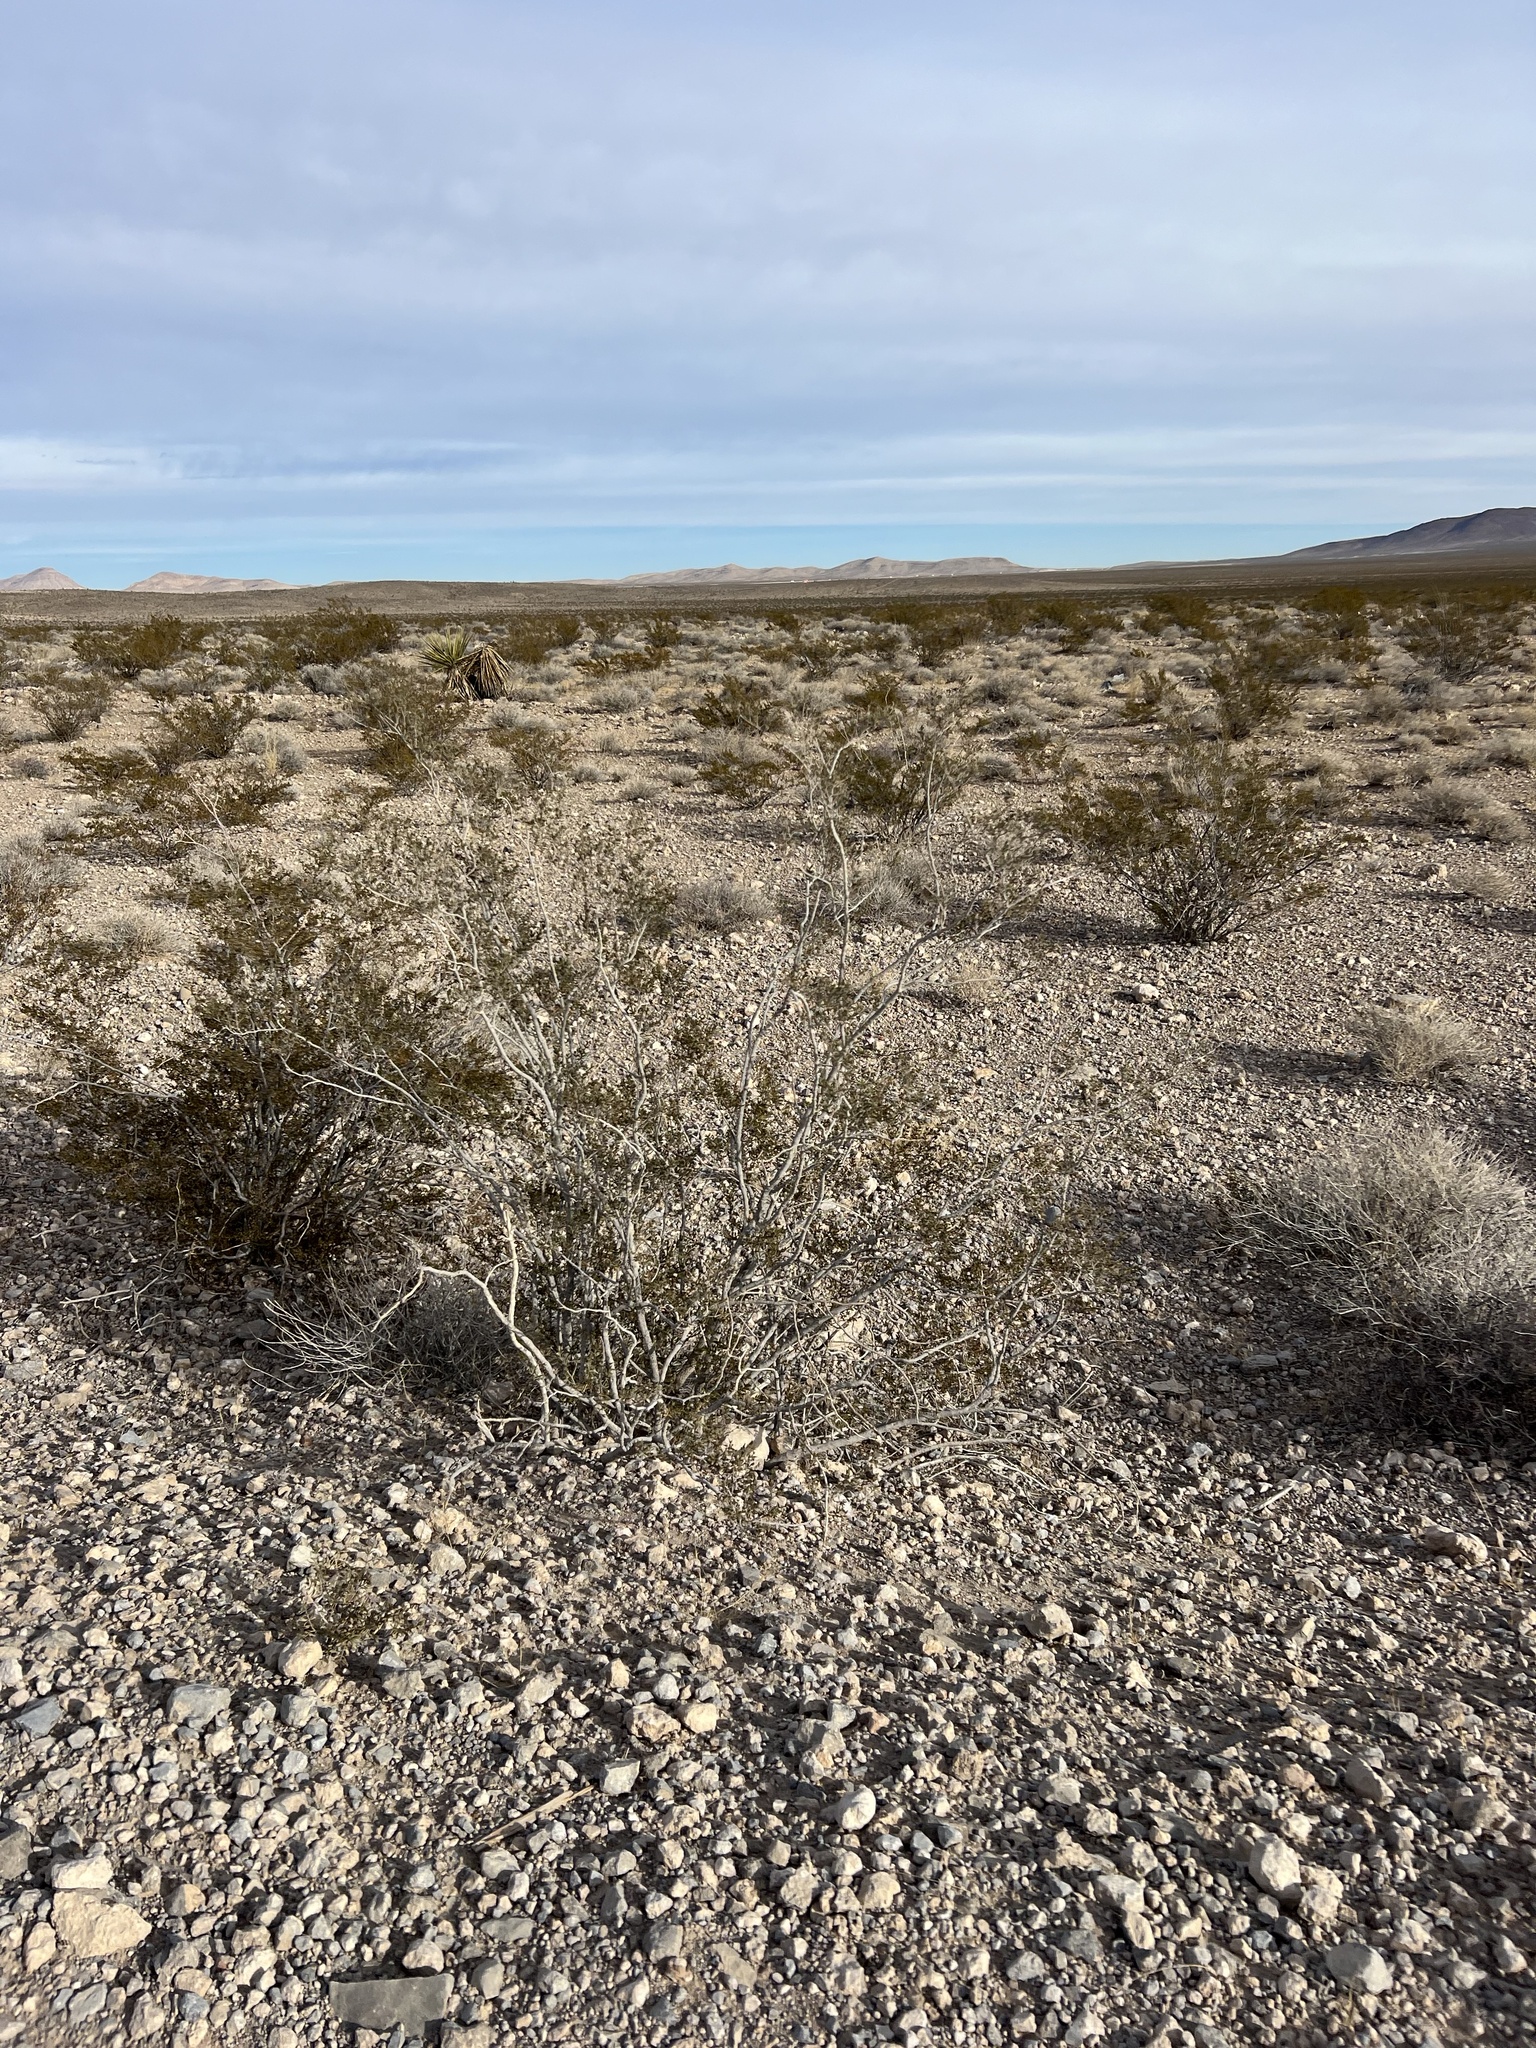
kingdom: Plantae
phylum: Tracheophyta
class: Magnoliopsida
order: Zygophyllales
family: Zygophyllaceae
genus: Larrea
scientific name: Larrea tridentata
